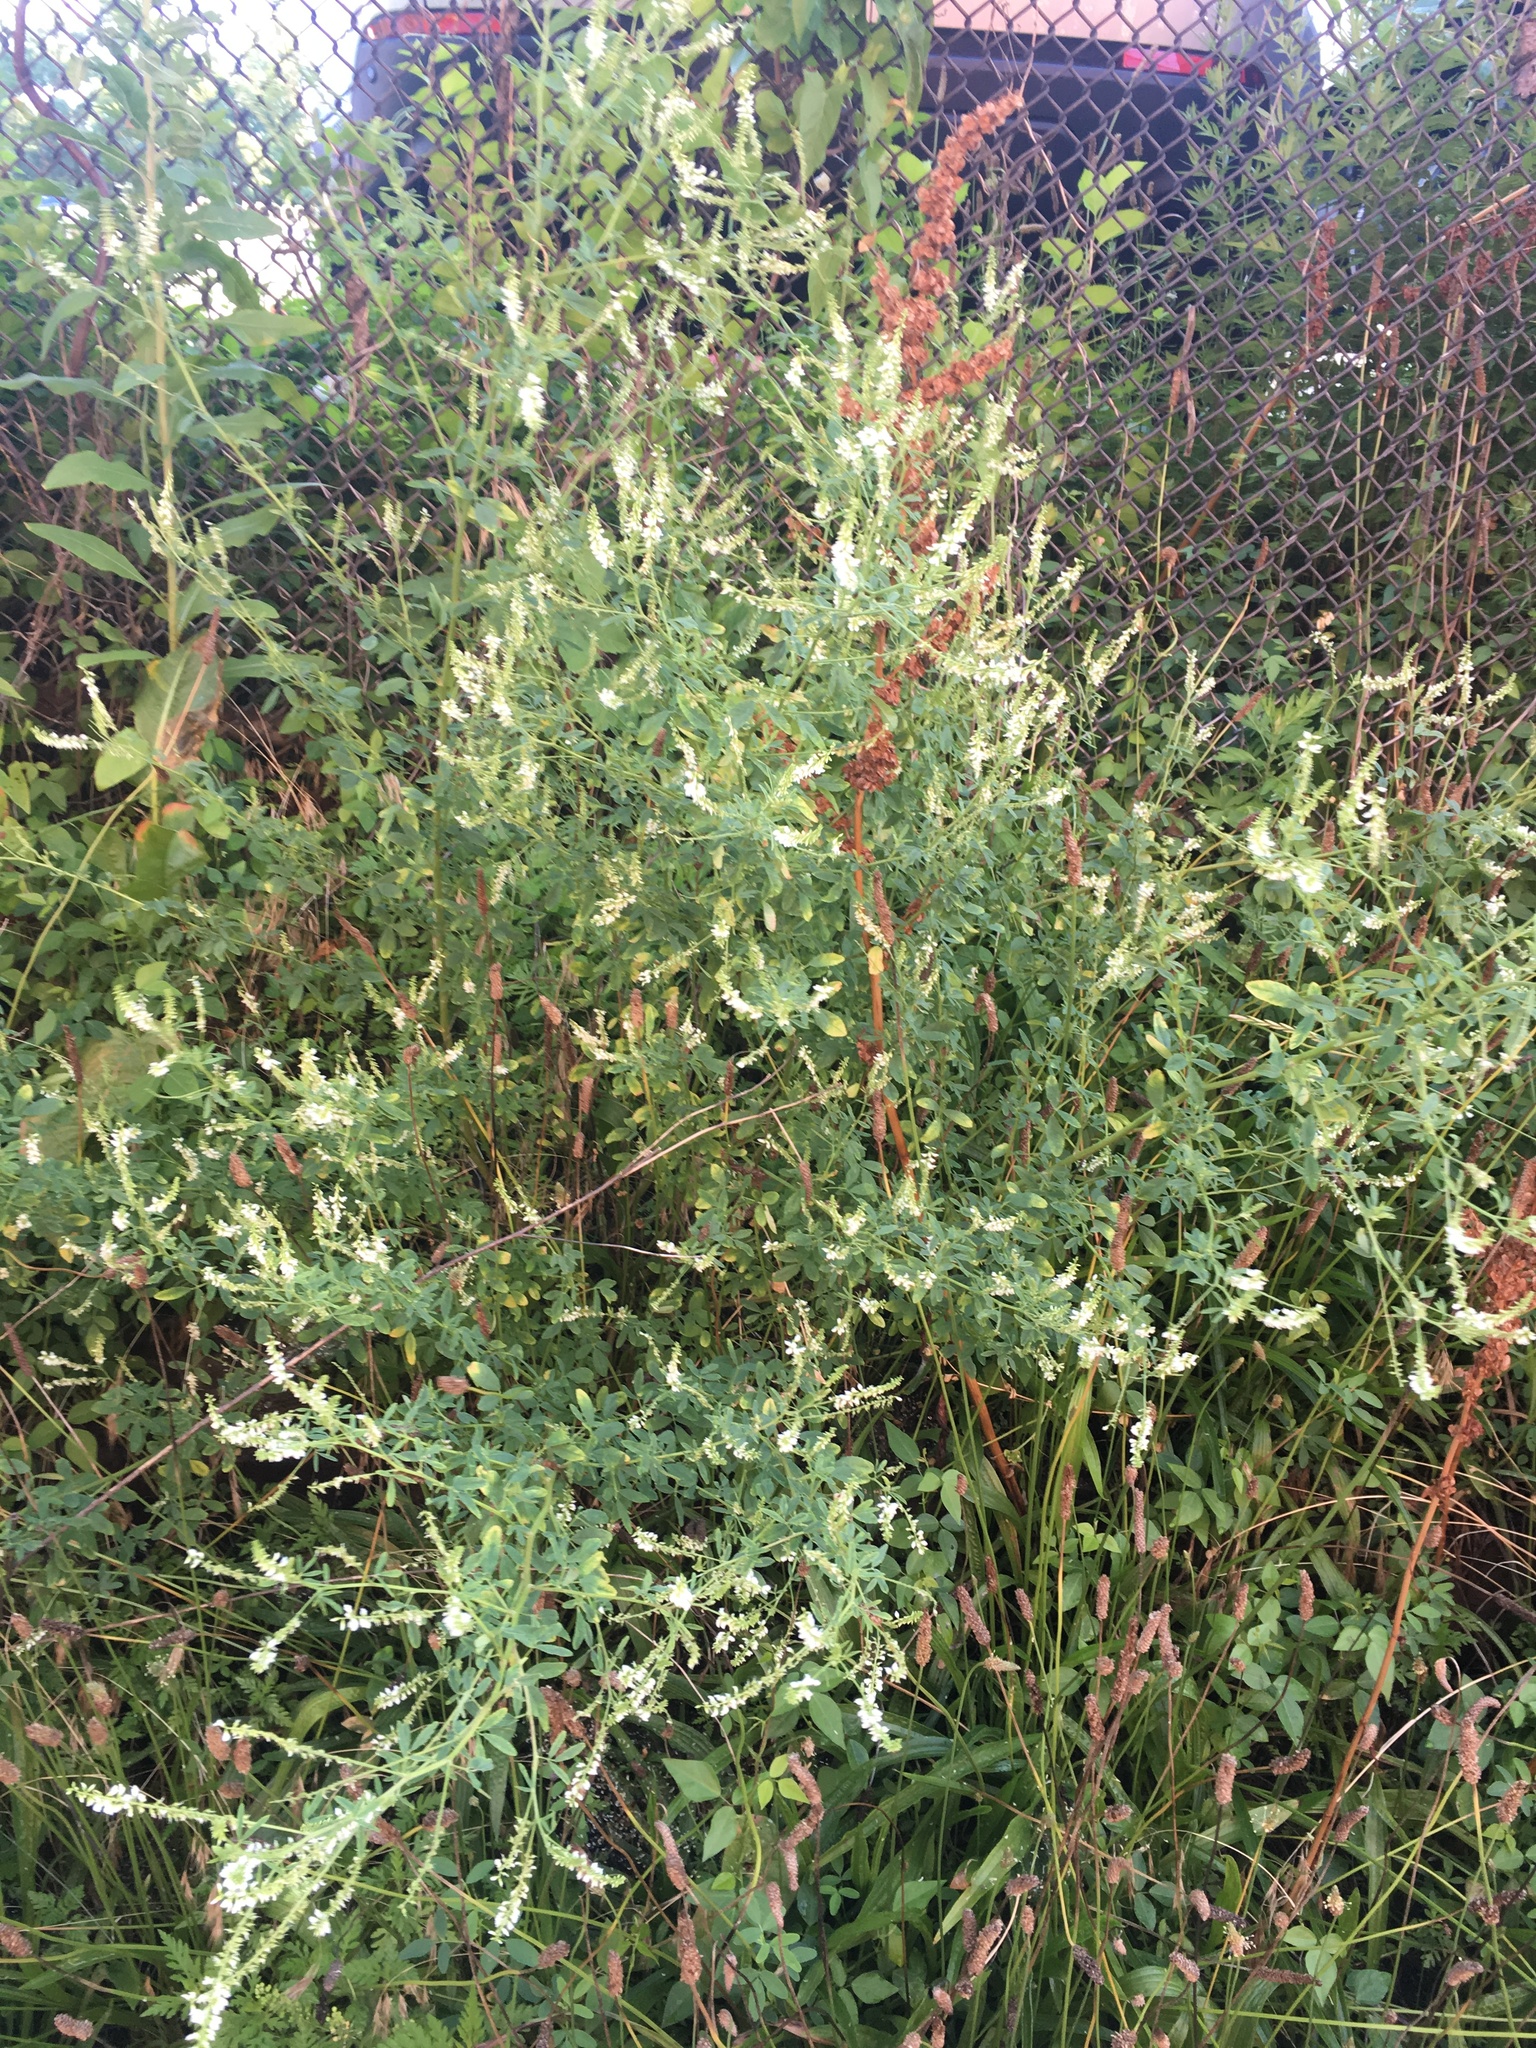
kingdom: Plantae
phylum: Tracheophyta
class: Magnoliopsida
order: Fabales
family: Fabaceae
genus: Melilotus
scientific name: Melilotus albus
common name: White melilot
